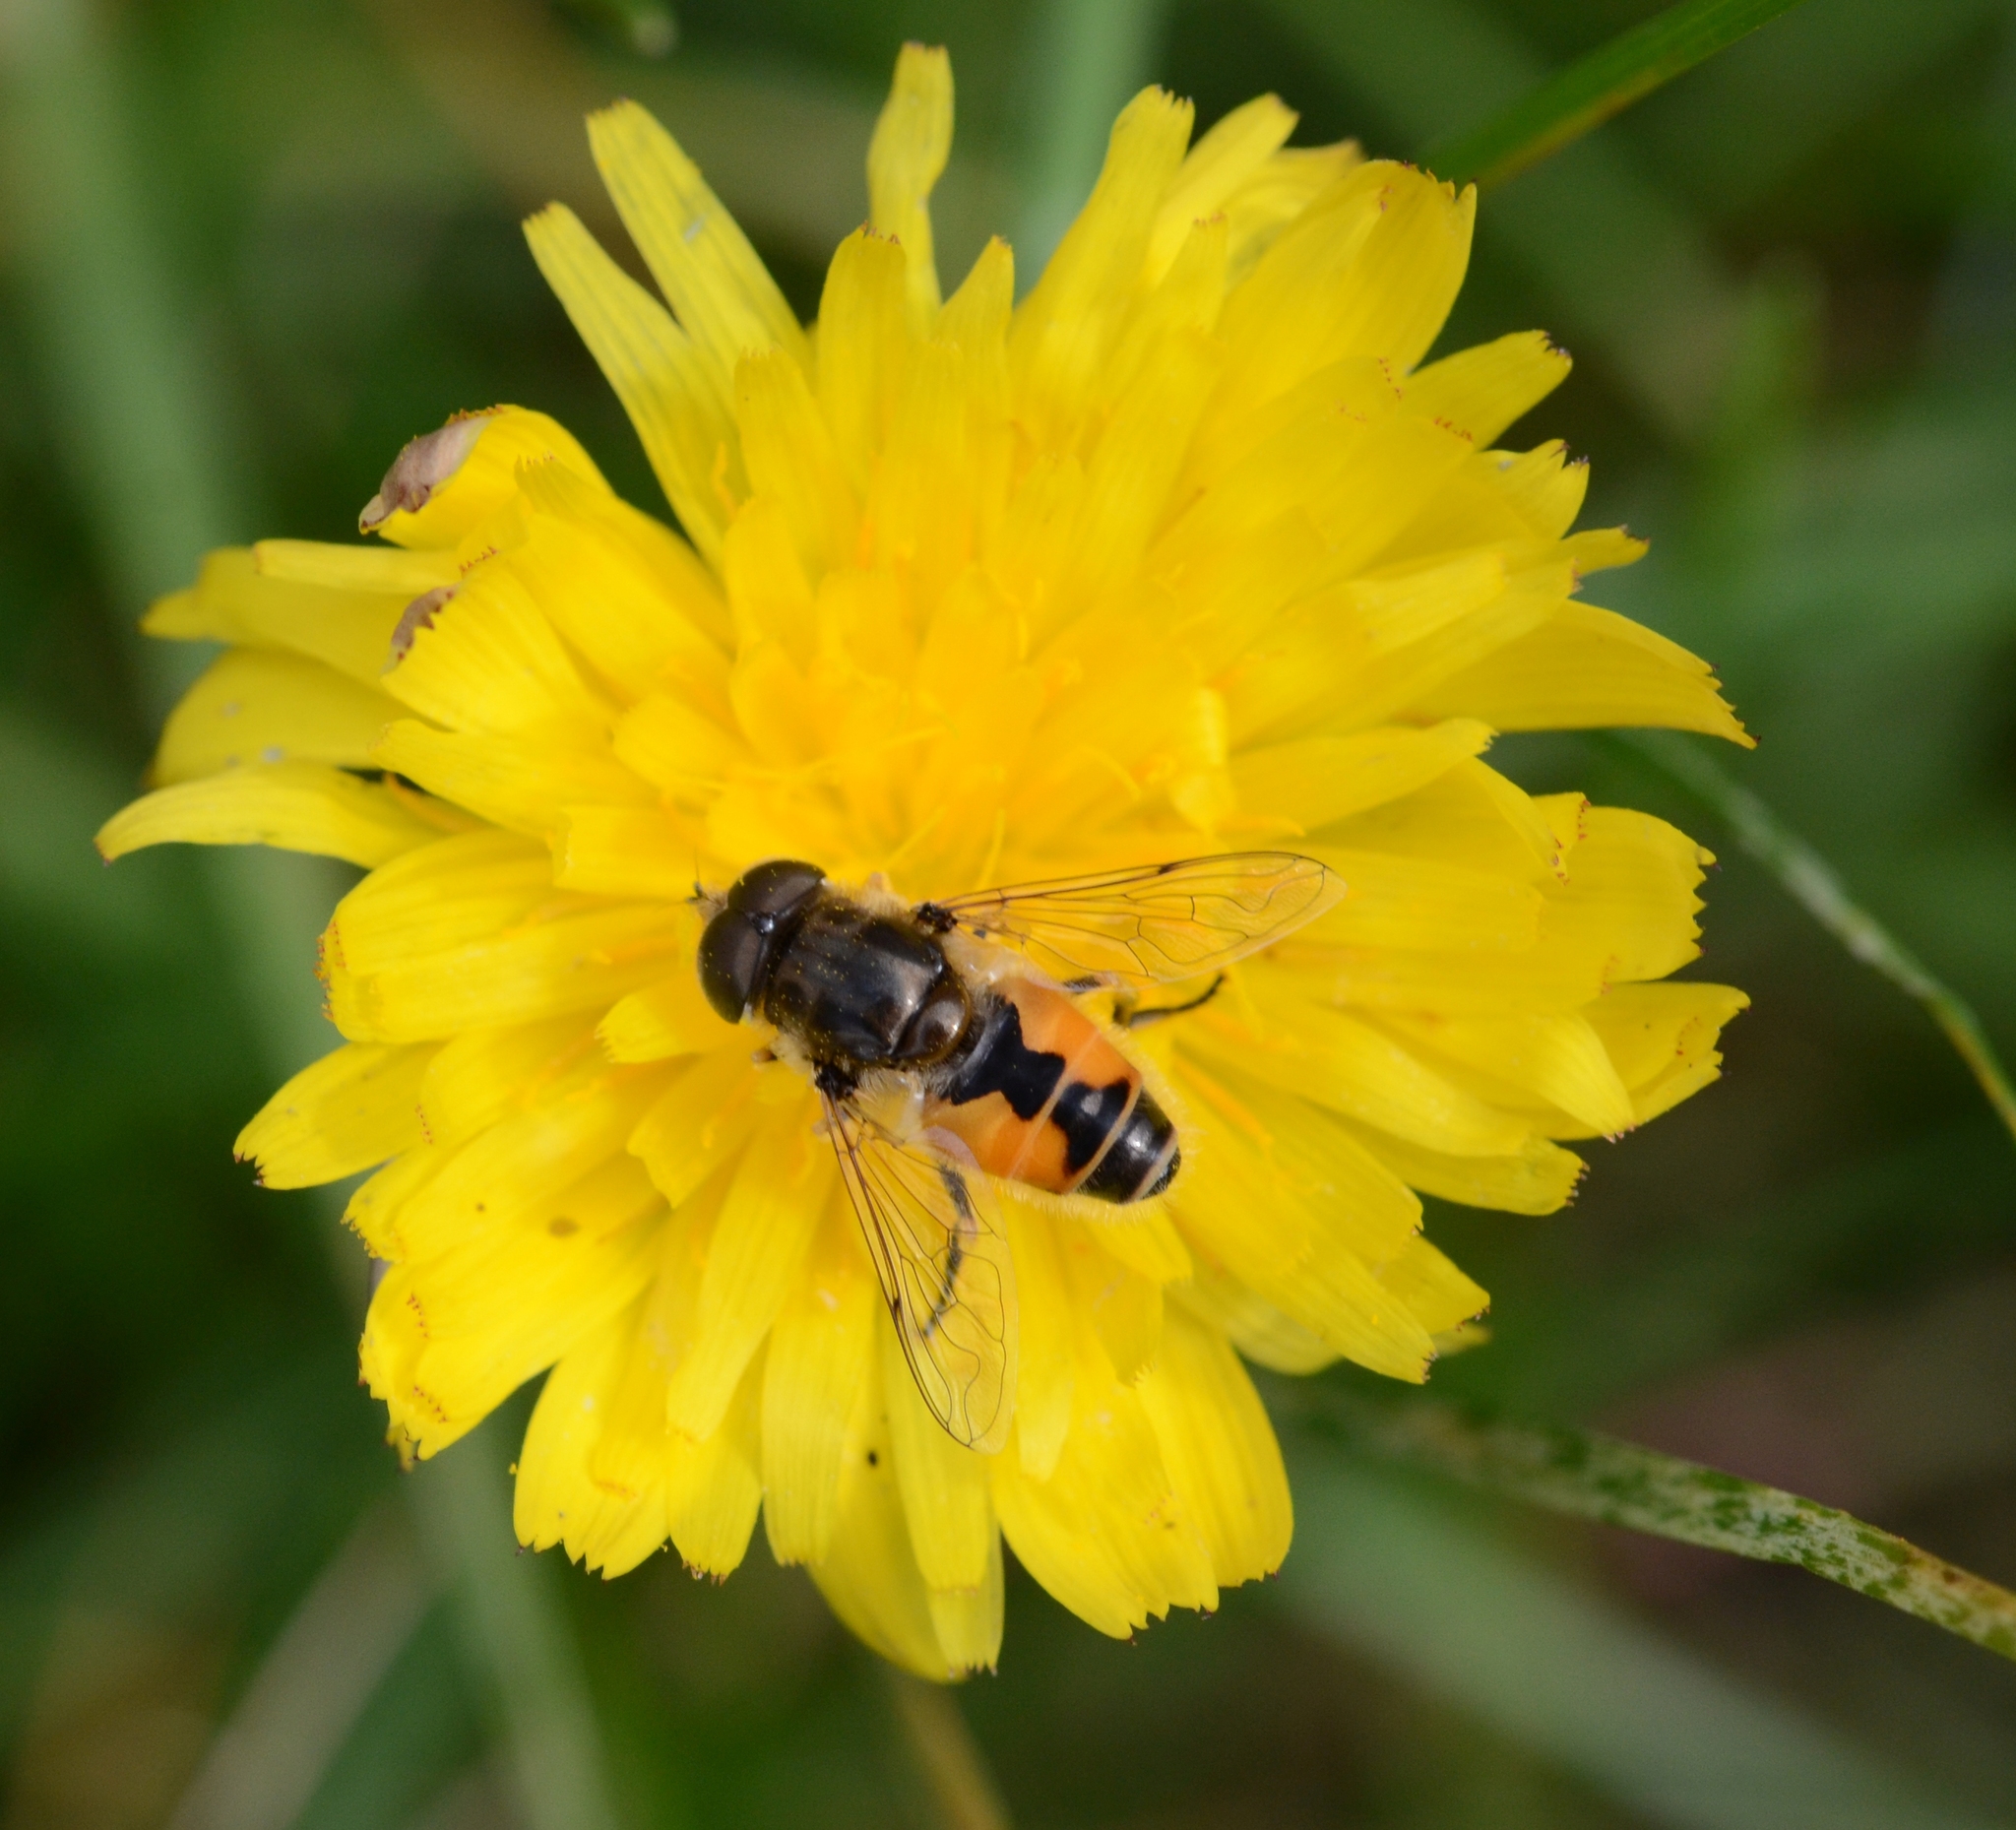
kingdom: Animalia
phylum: Arthropoda
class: Insecta
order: Diptera
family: Syrphidae
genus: Eristalis
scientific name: Eristalis arbustorum
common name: Hover fly
